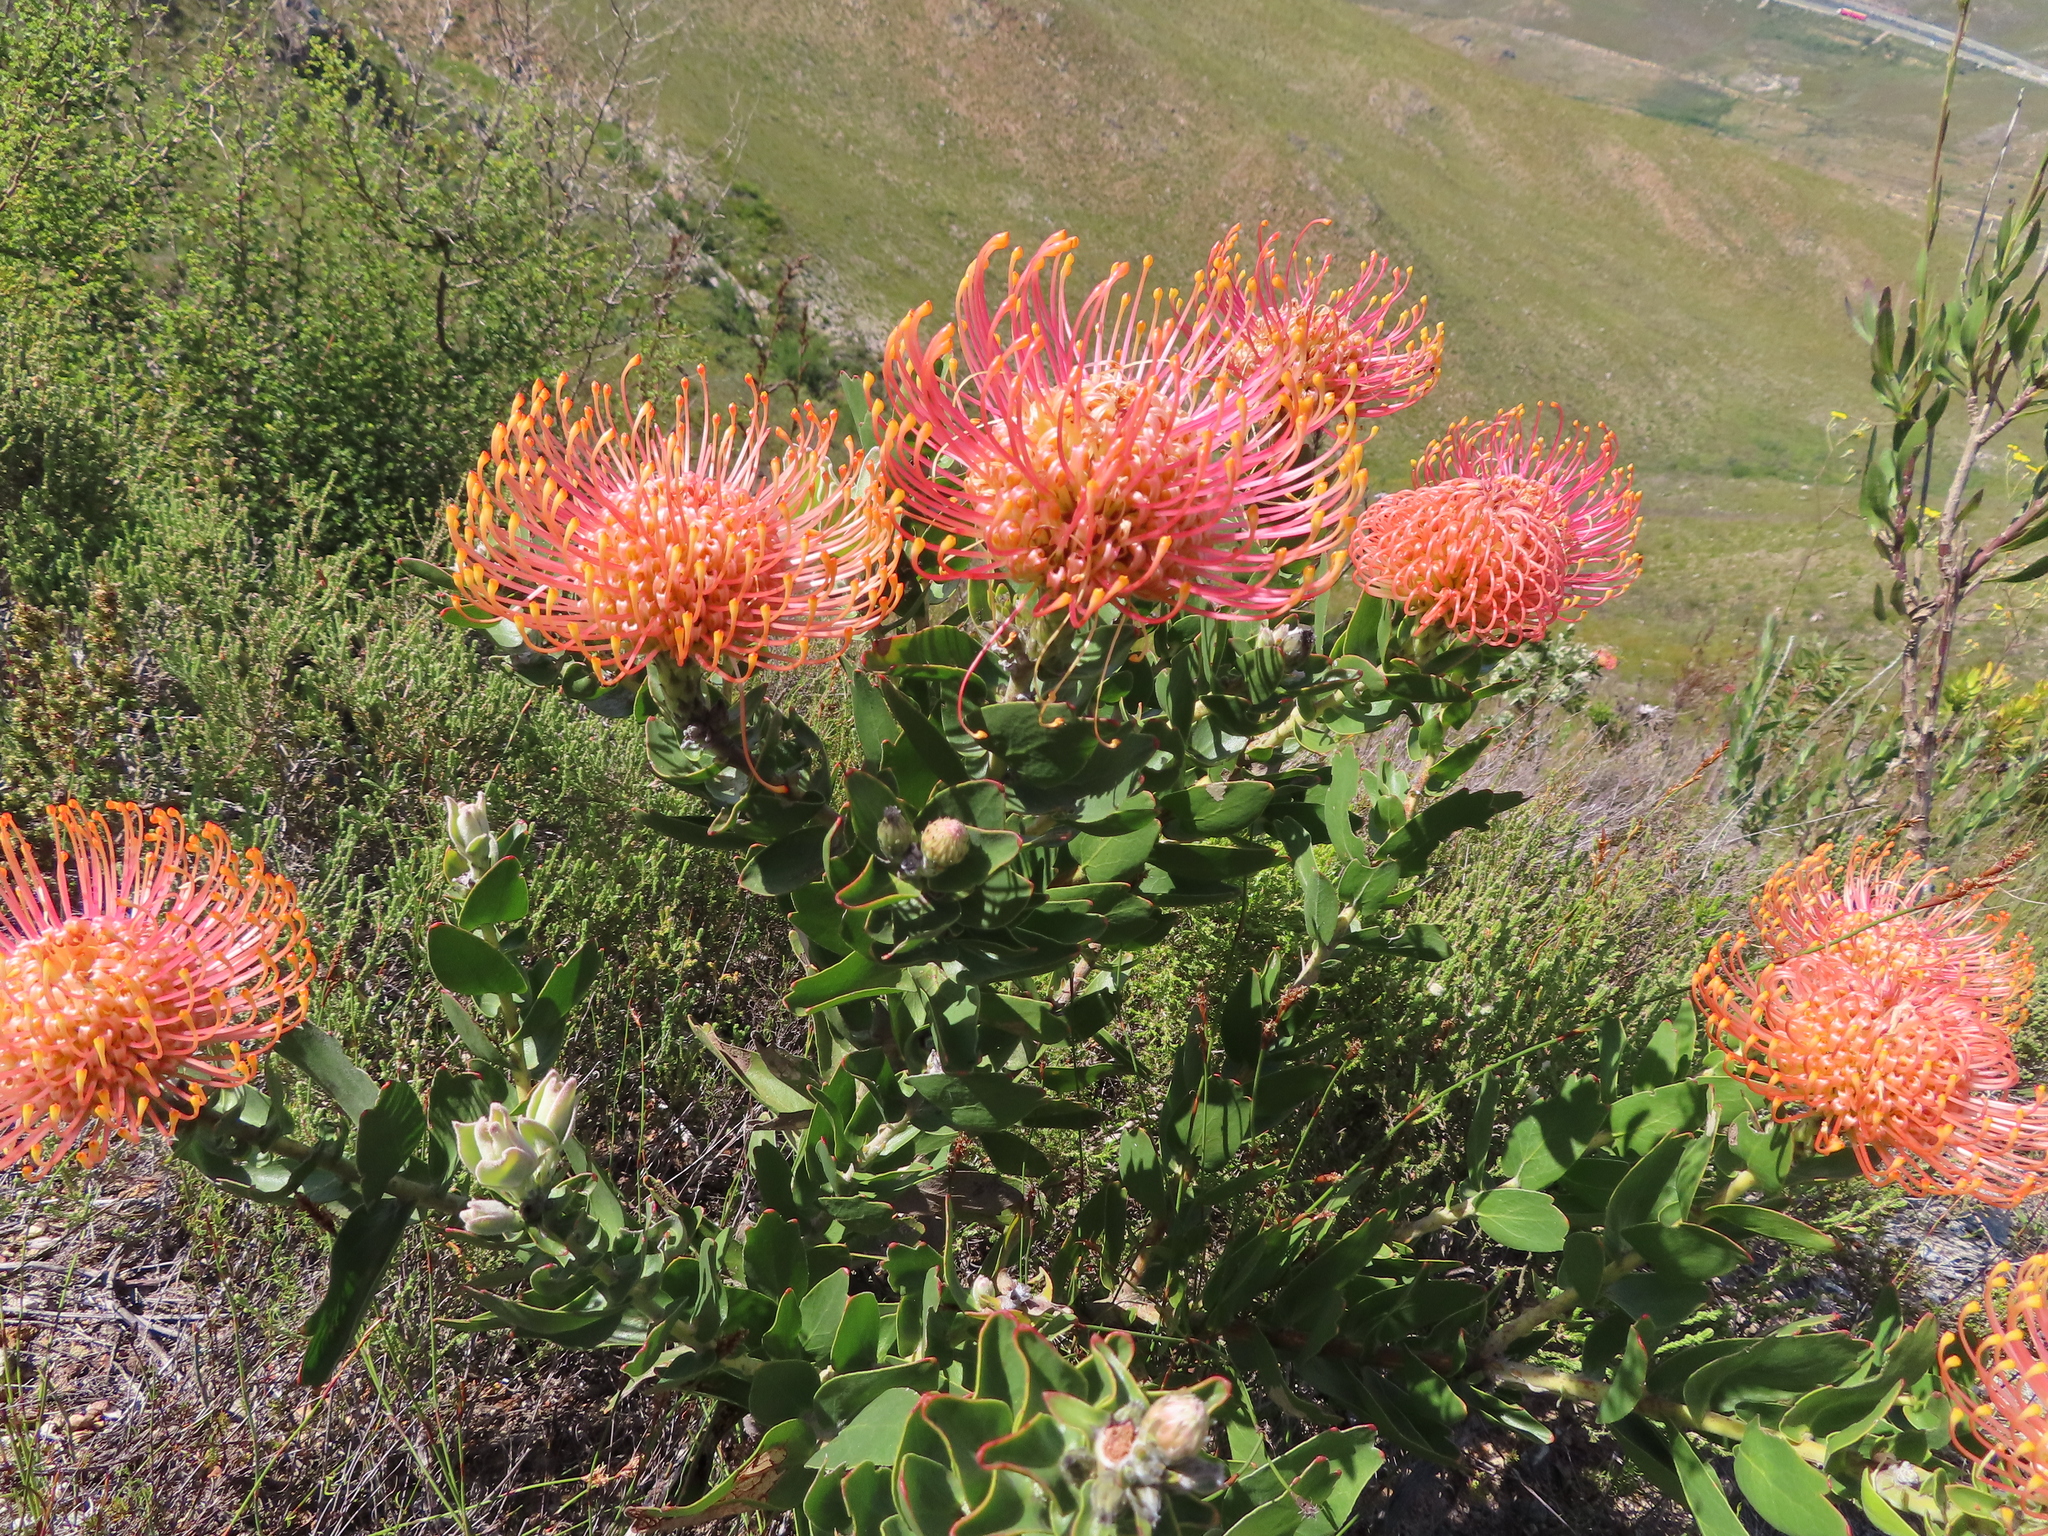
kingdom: Plantae
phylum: Tracheophyta
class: Magnoliopsida
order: Proteales
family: Proteaceae
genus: Leucospermum
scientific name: Leucospermum cordifolium
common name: Red pincushion-protea
